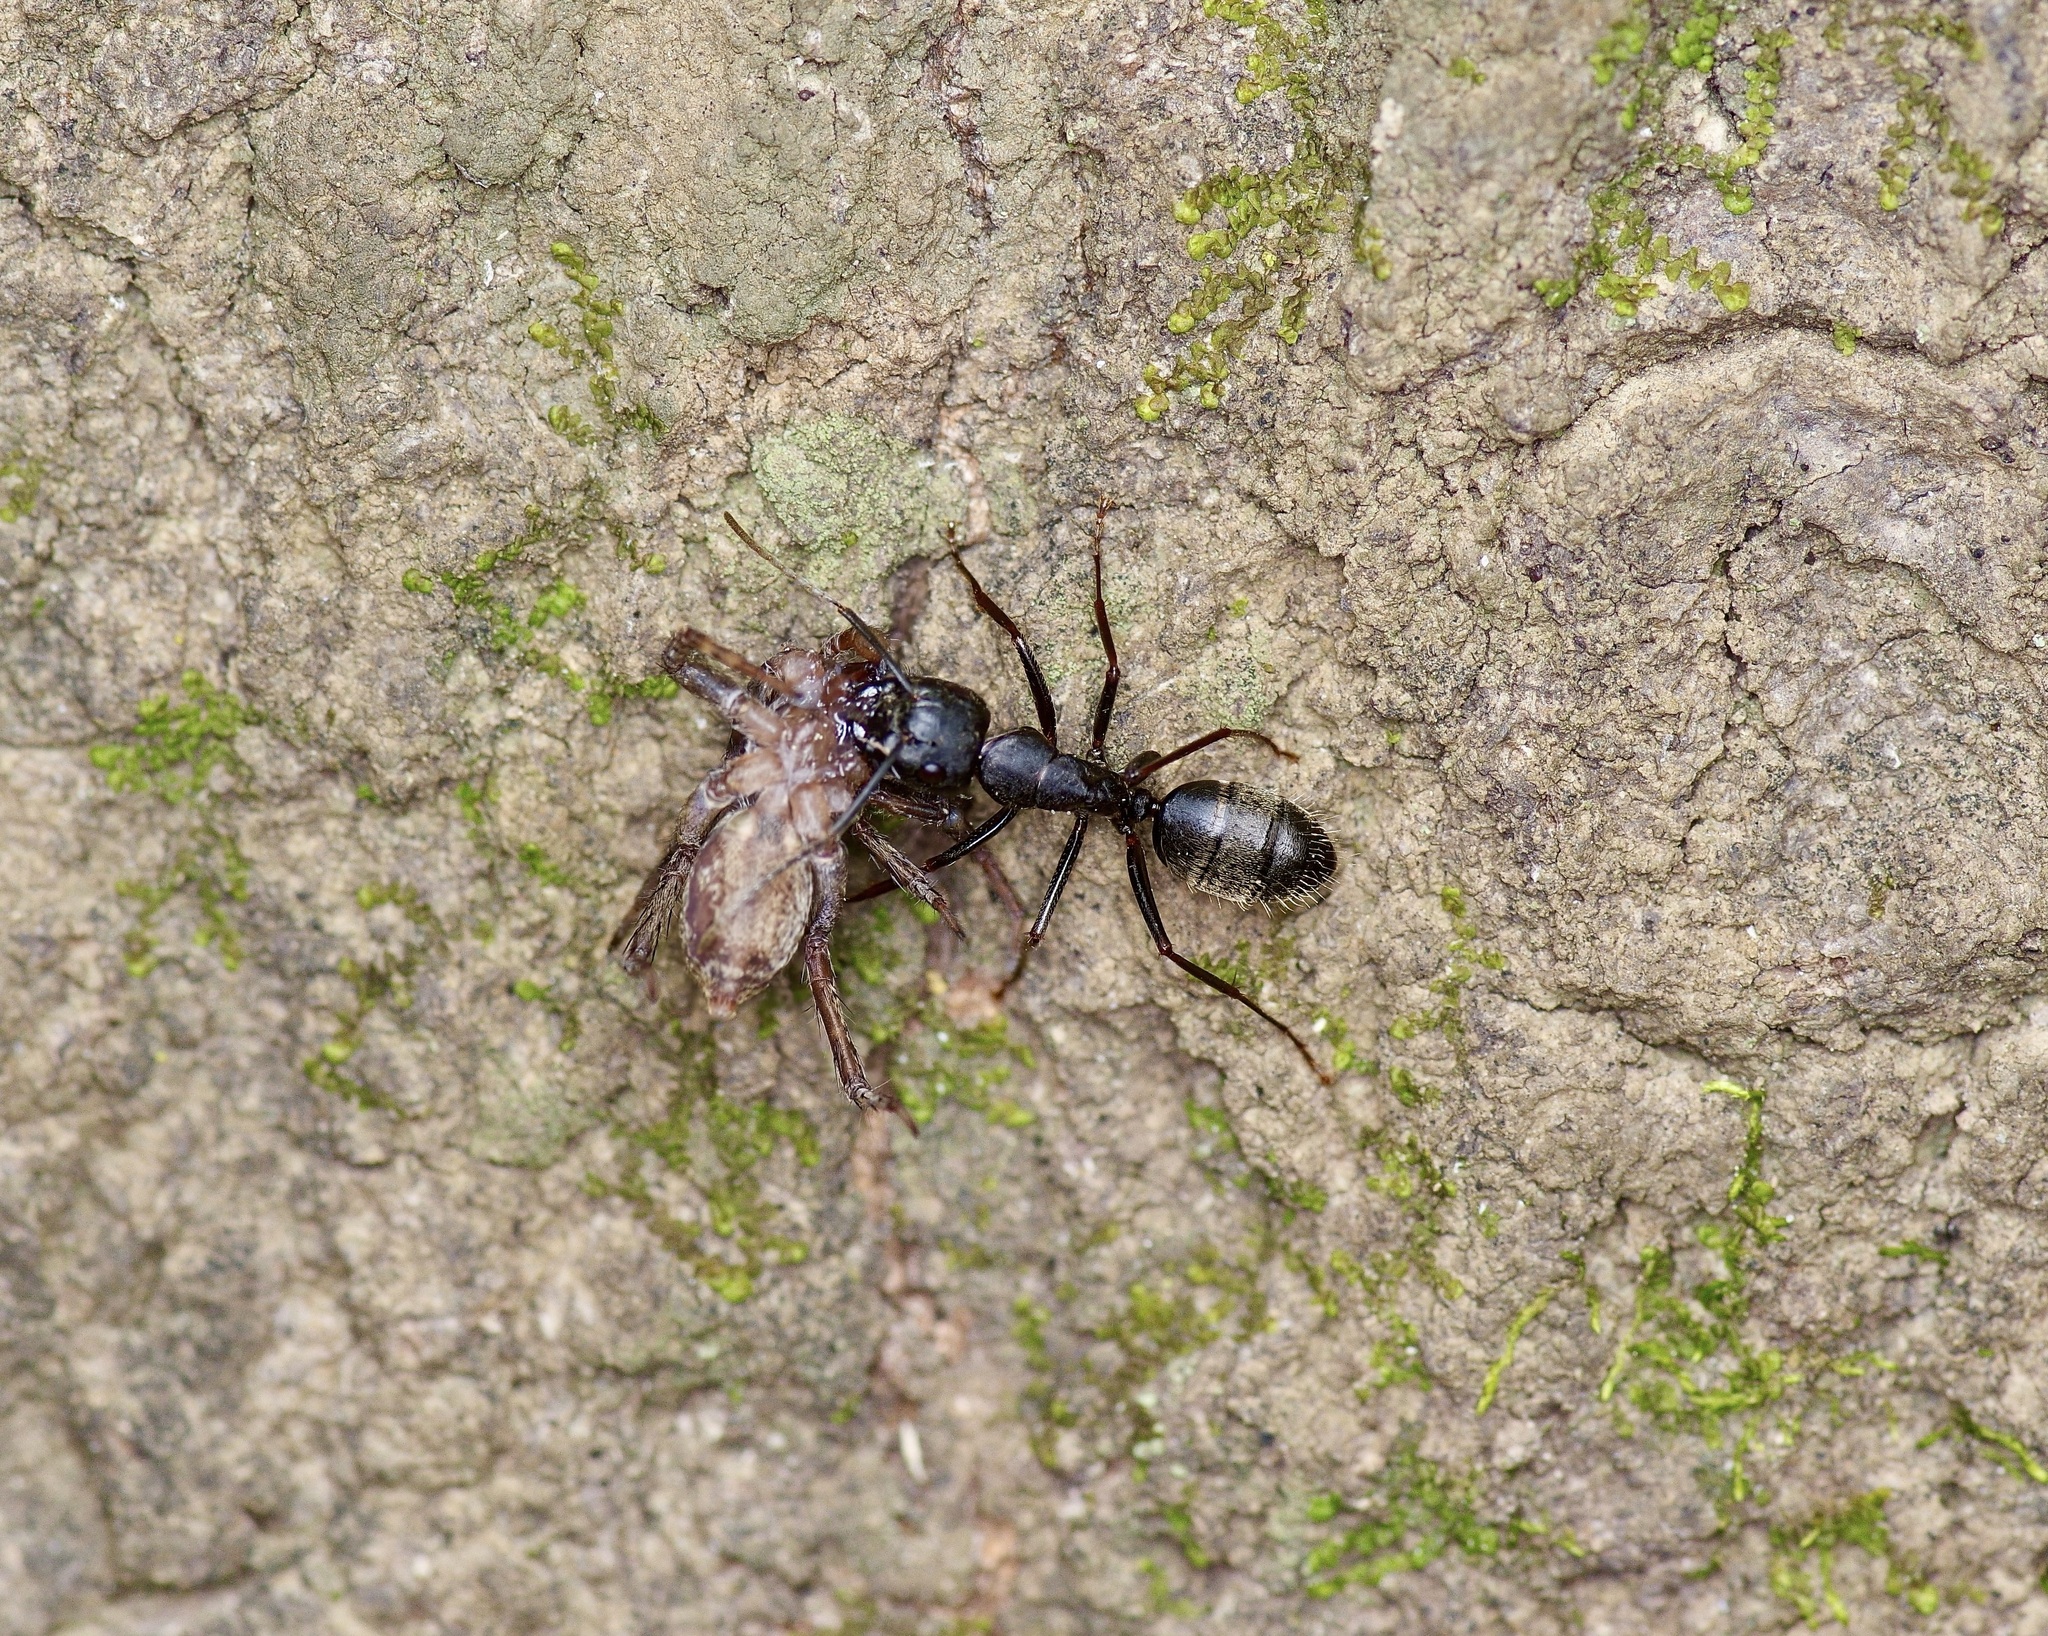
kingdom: Animalia
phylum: Arthropoda
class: Insecta
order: Hymenoptera
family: Formicidae
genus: Camponotus
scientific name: Camponotus pennsylvanicus
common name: Black carpenter ant
